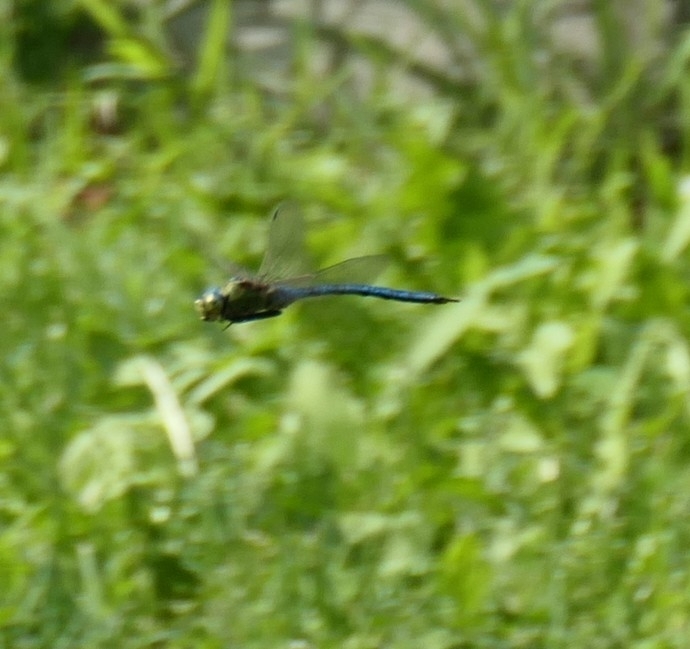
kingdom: Animalia
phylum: Arthropoda
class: Insecta
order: Odonata
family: Aeshnidae
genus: Anax
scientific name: Anax imperator
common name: Emperor dragonfly
